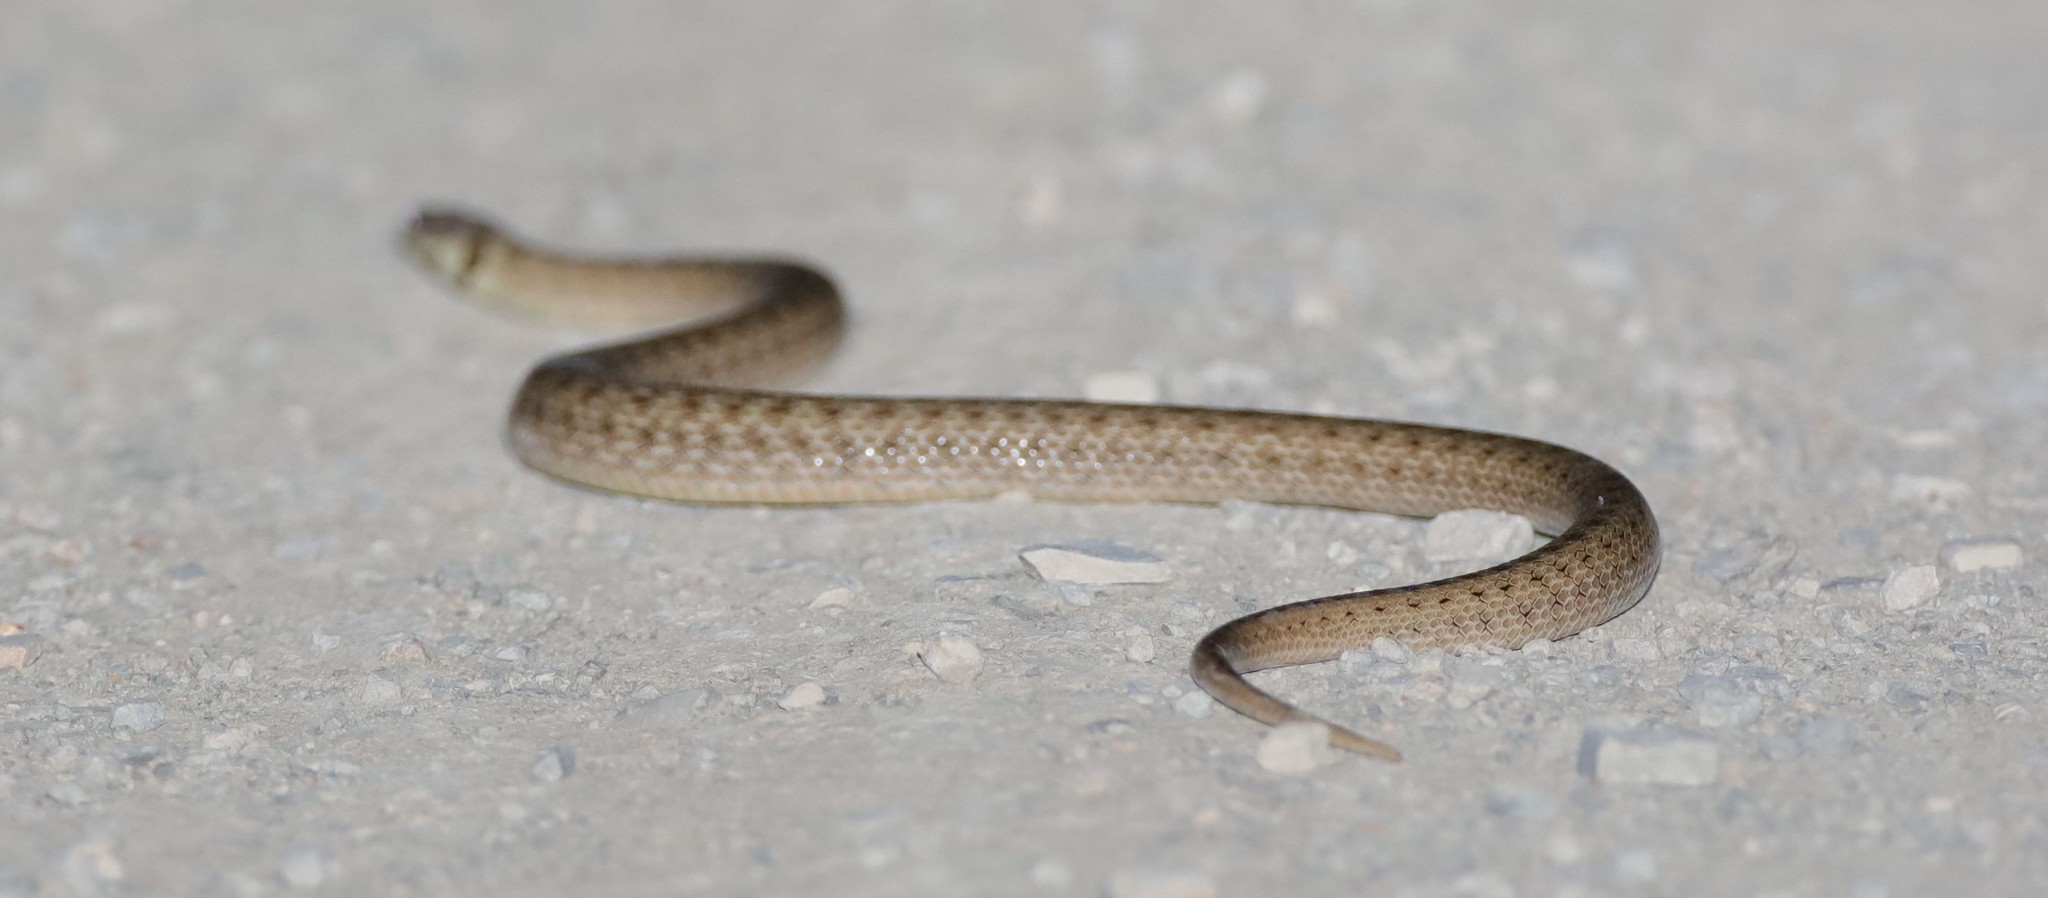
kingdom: Animalia
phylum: Chordata
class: Squamata
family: Colubridae
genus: Macroprotodon
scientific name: Macroprotodon mauritanicus
